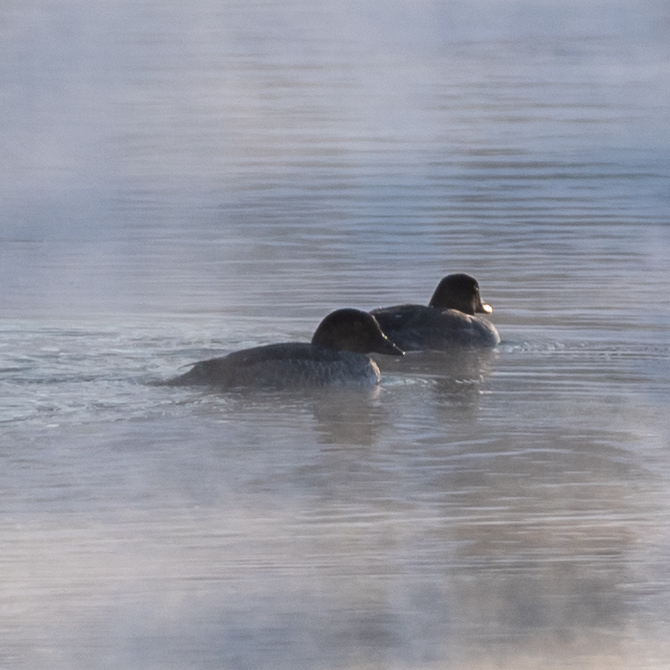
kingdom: Animalia
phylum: Chordata
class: Aves
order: Anseriformes
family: Anatidae
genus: Bucephala
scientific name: Bucephala clangula
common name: Common goldeneye
